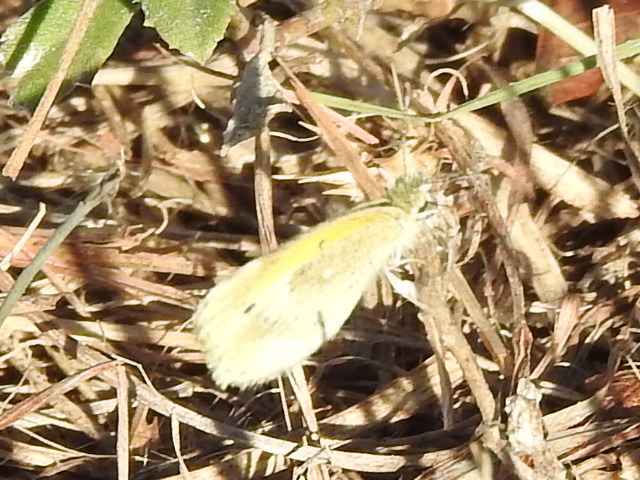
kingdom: Animalia
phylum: Arthropoda
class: Insecta
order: Lepidoptera
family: Pieridae
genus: Nathalis
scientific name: Nathalis iole
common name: Dainty sulphur
